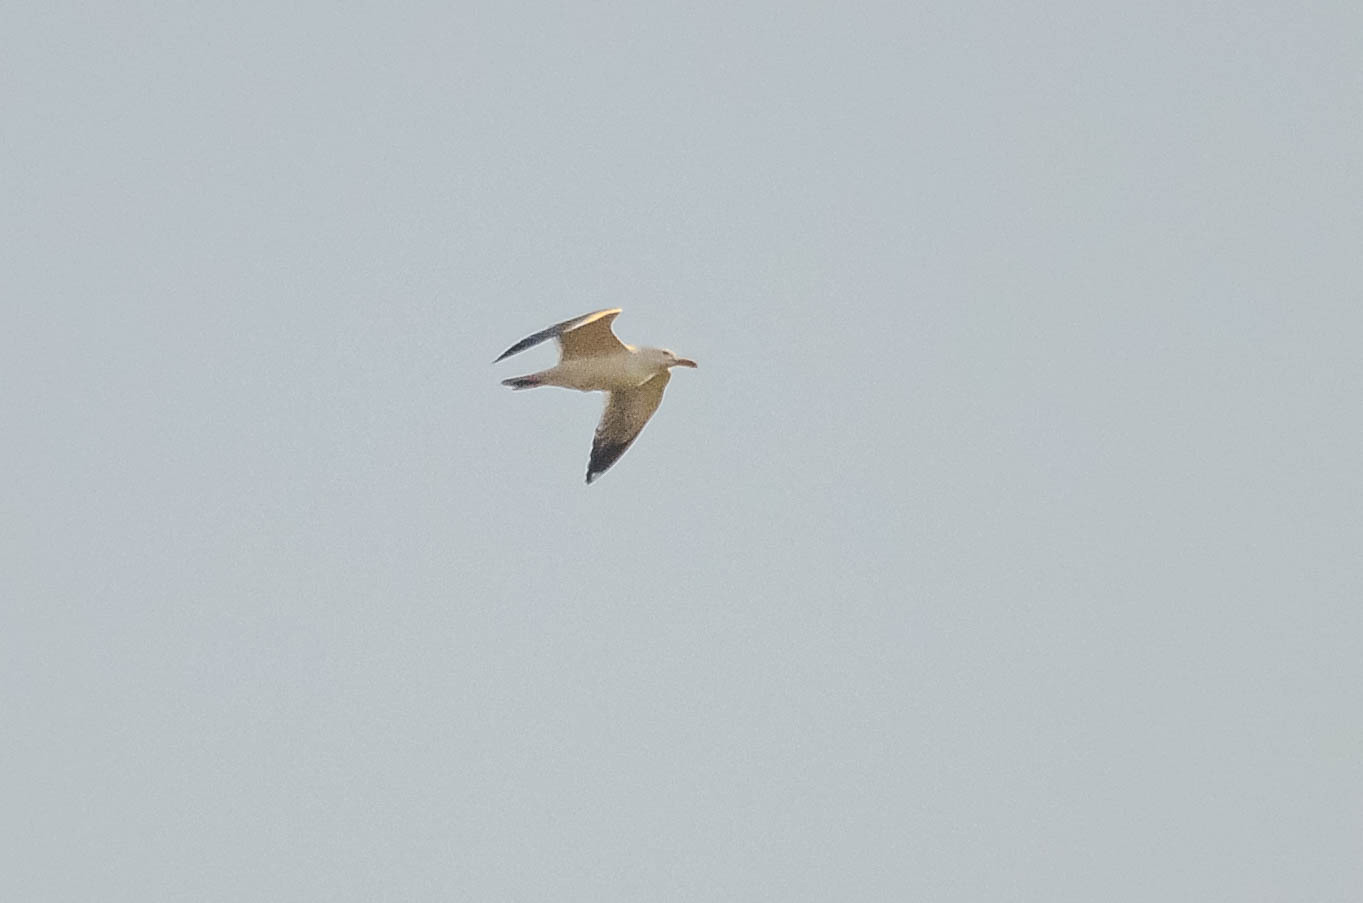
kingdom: Animalia
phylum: Chordata
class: Aves
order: Charadriiformes
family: Laridae
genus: Larus
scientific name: Larus fuscus
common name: Lesser black-backed gull
